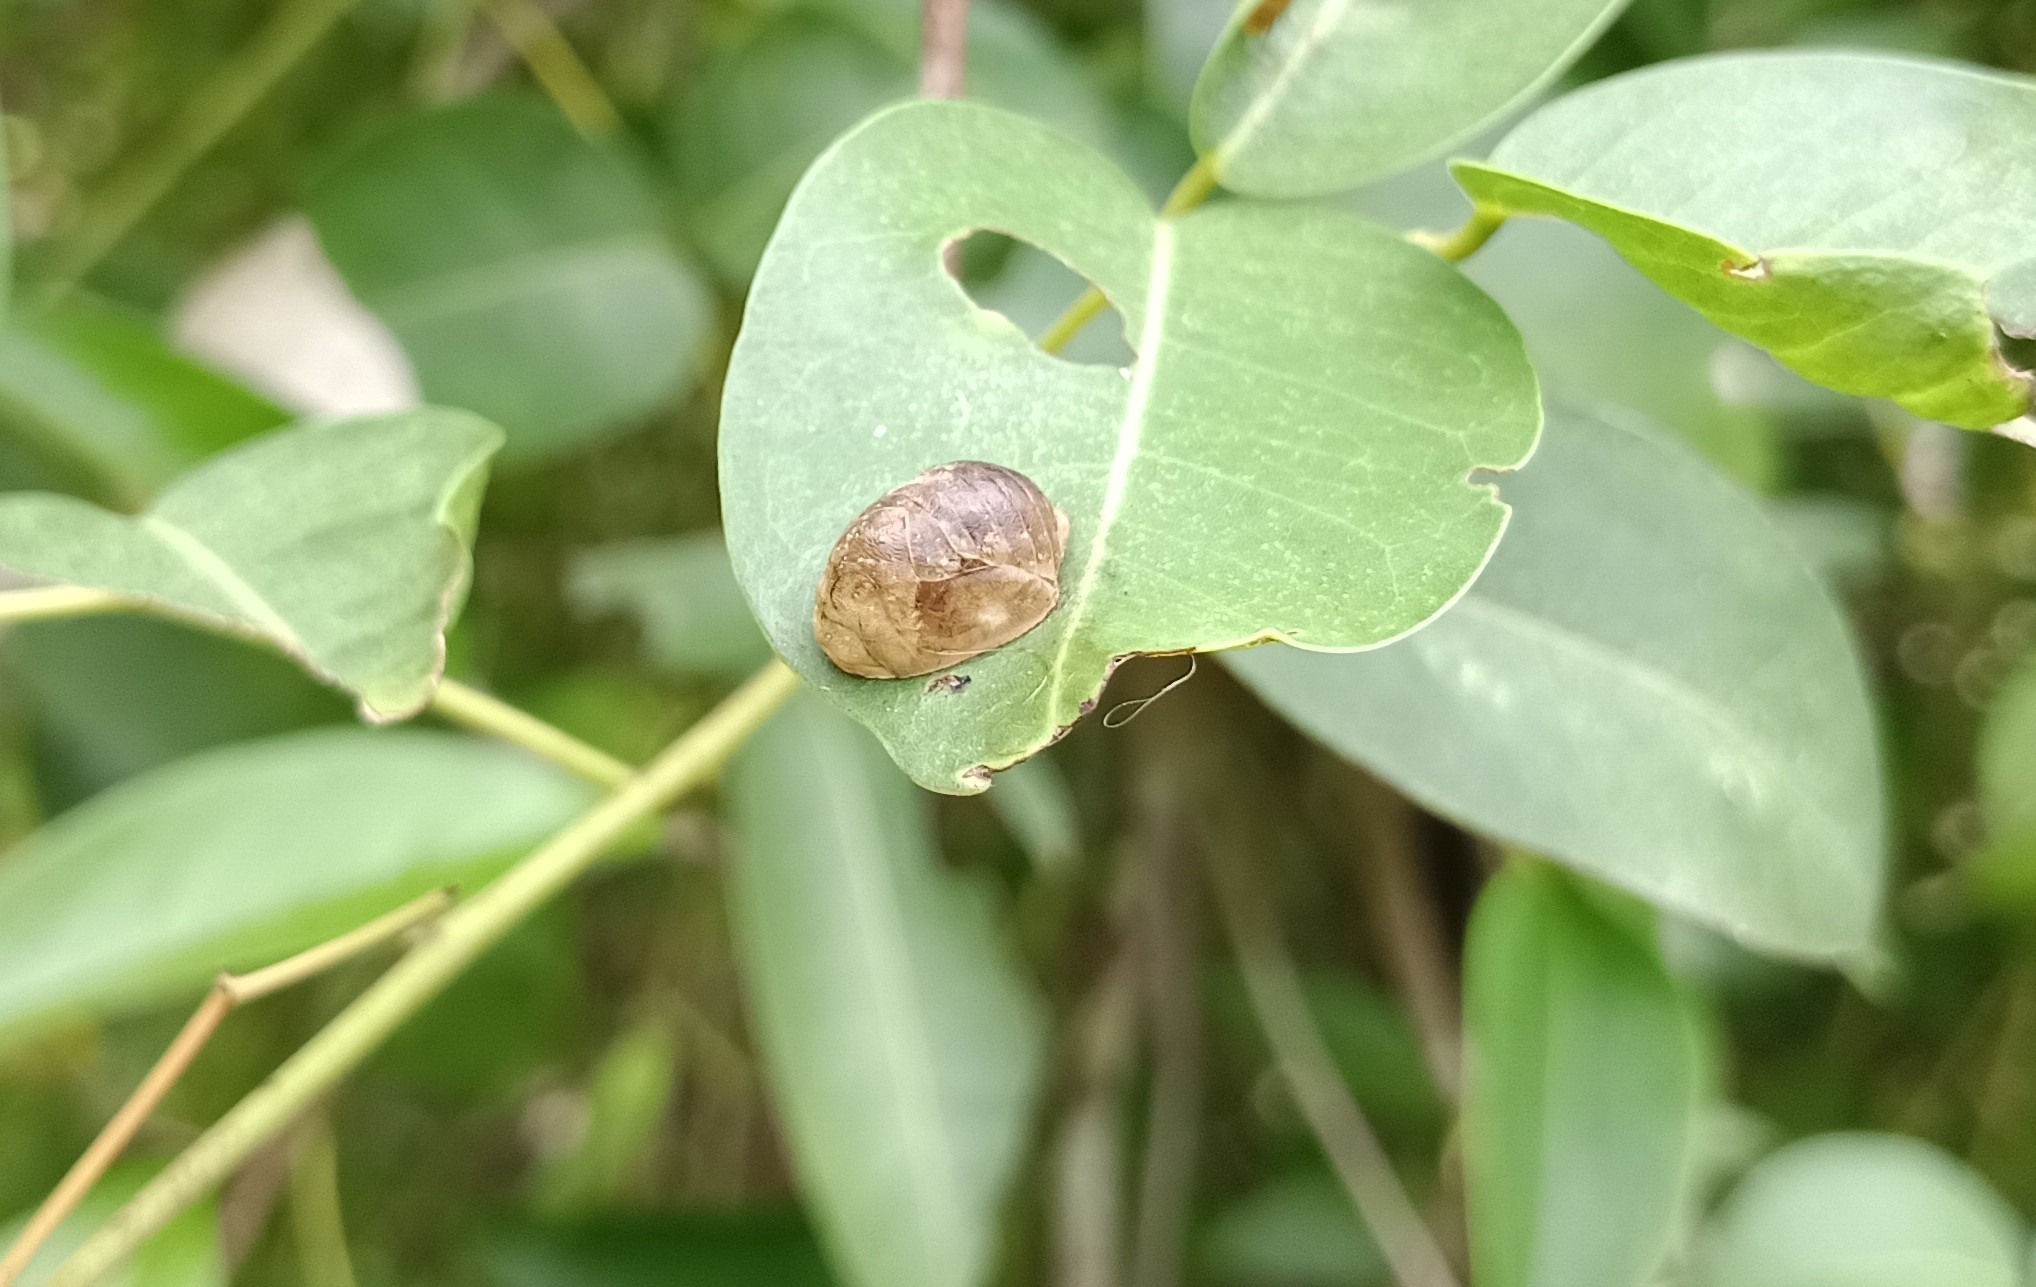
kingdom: Animalia
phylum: Arthropoda
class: Insecta
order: Lepidoptera
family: Lycaenidae
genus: Curetis
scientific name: Curetis thetis
